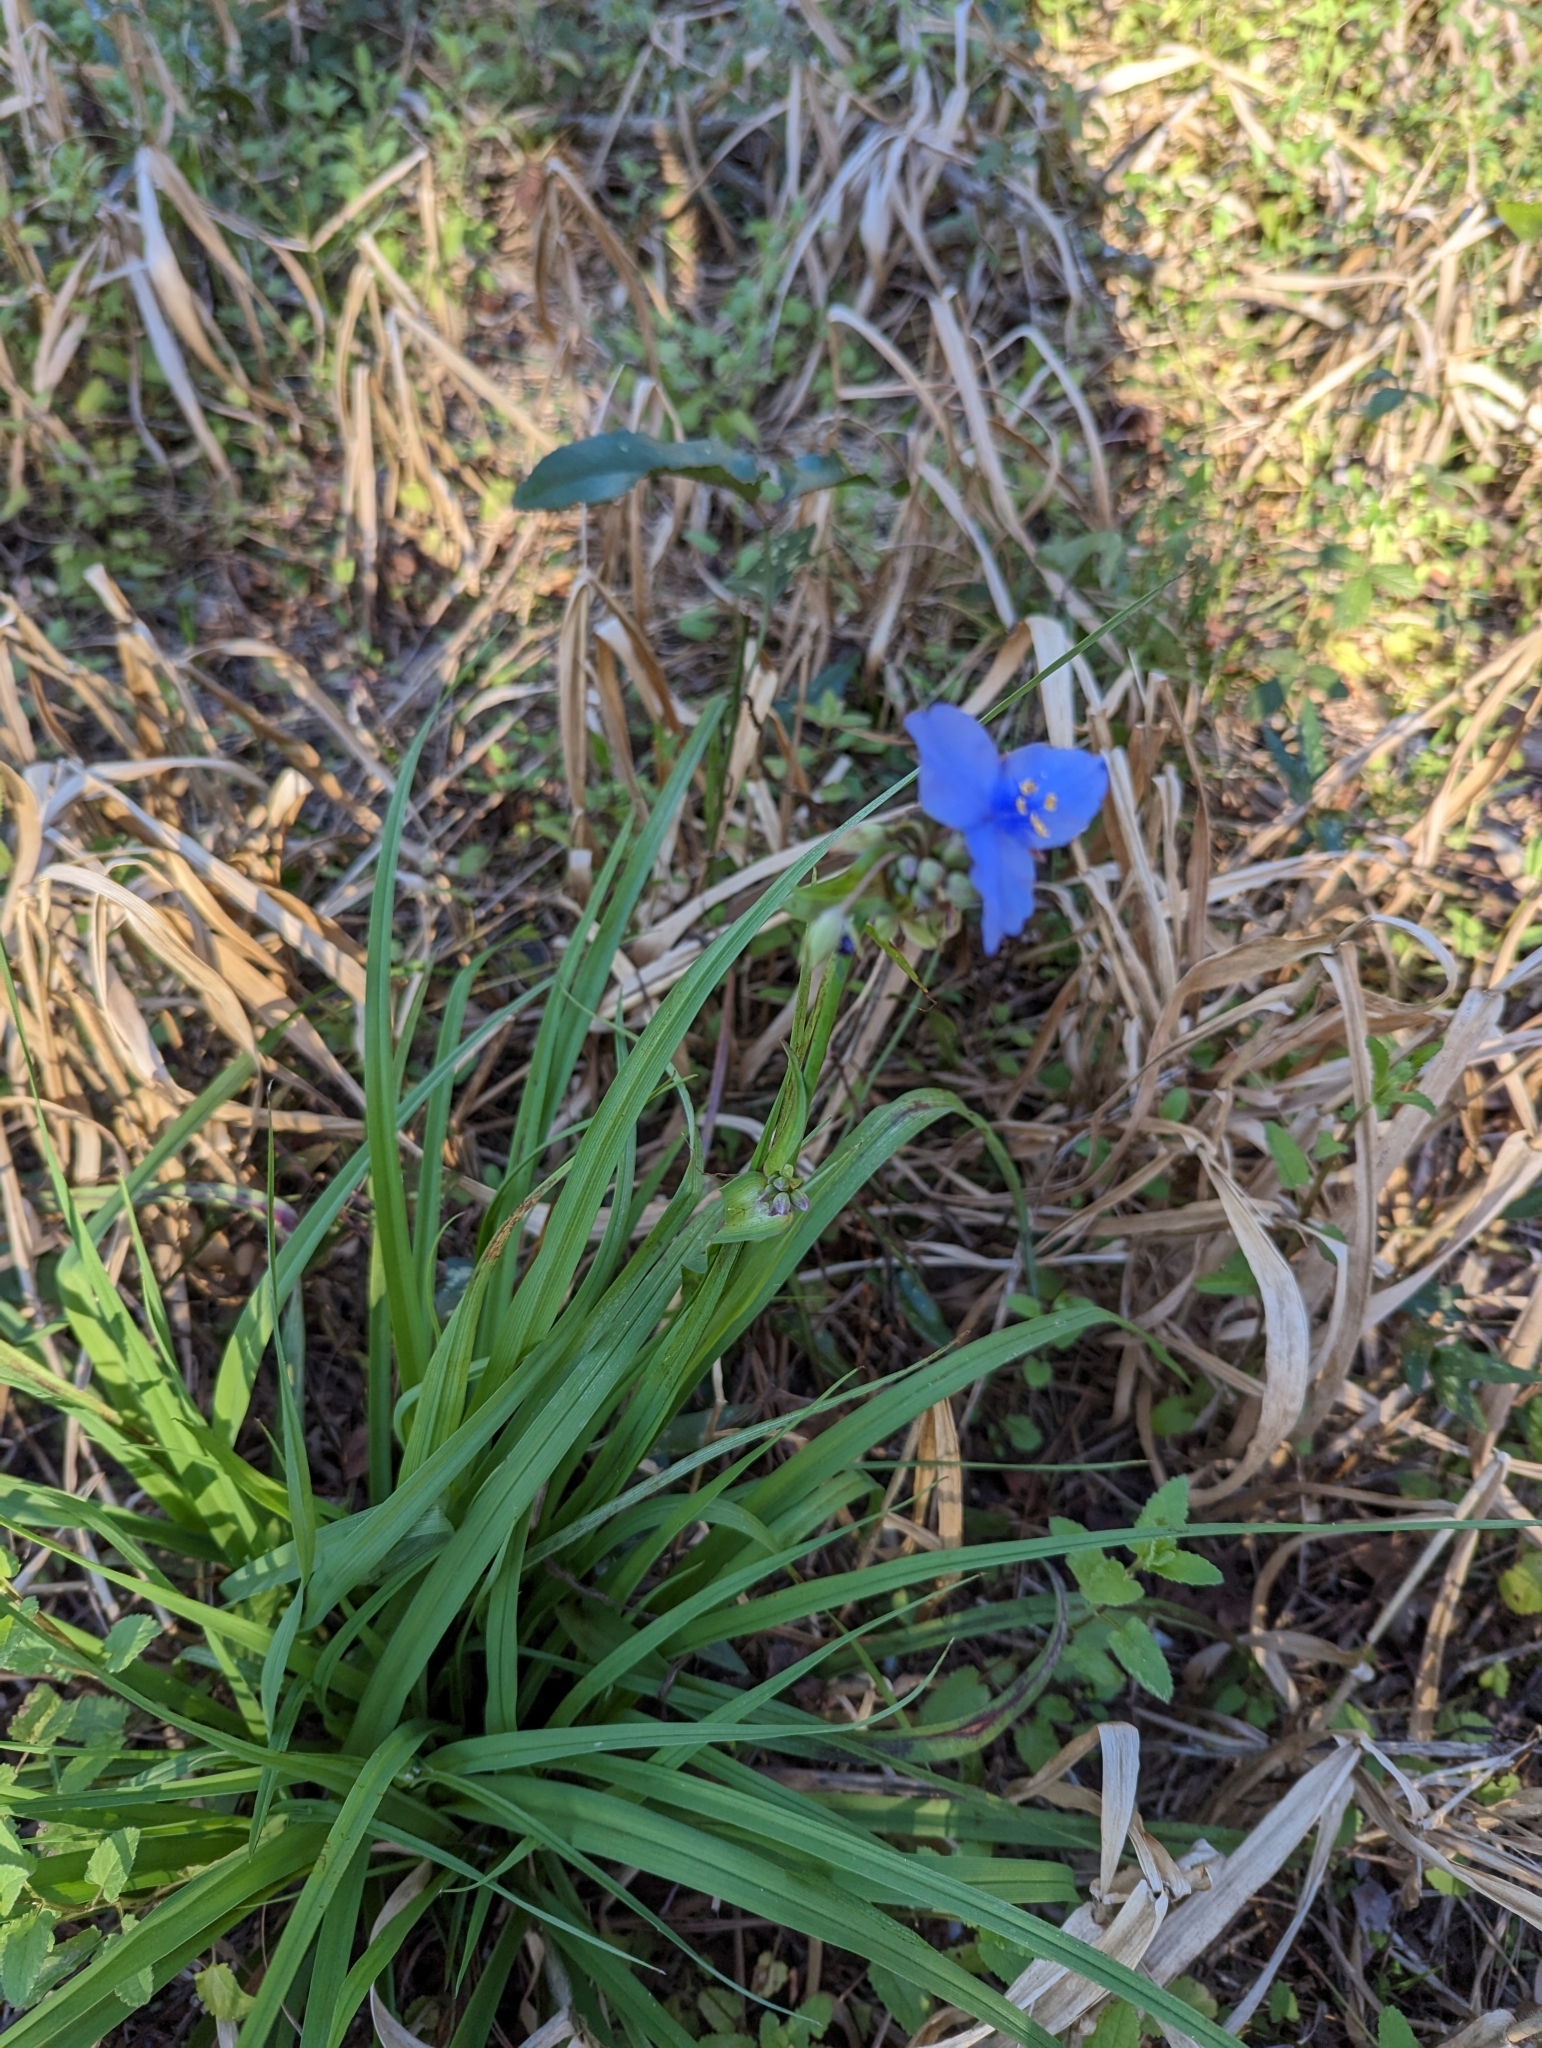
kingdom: Plantae
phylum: Tracheophyta
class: Liliopsida
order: Commelinales
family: Commelinaceae
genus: Tradescantia
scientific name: Tradescantia ohiensis
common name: Ohio spiderwort
